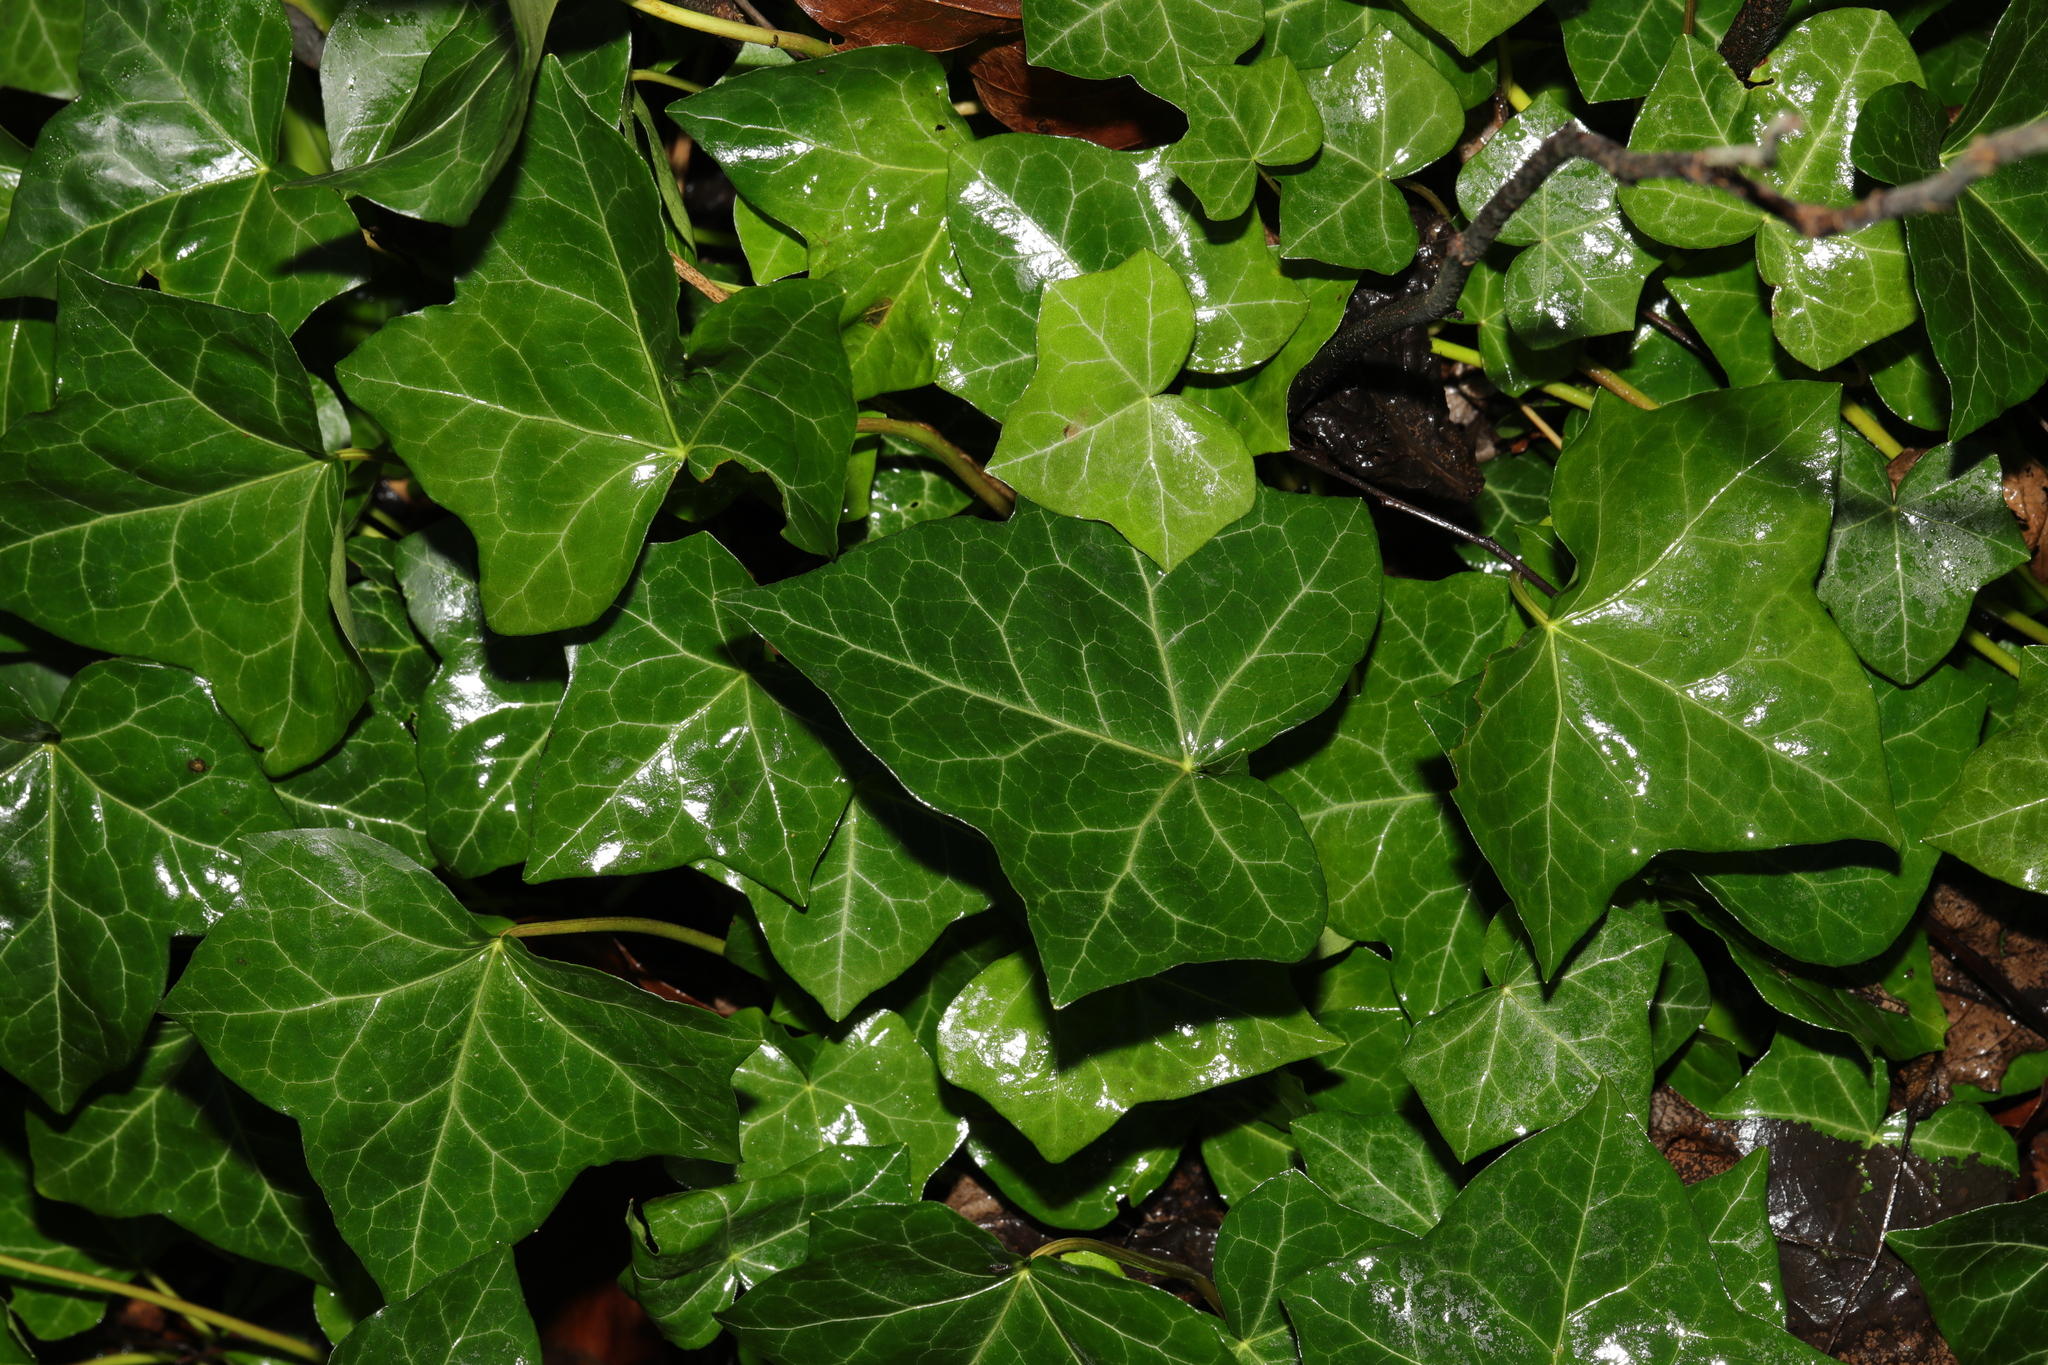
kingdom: Plantae
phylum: Tracheophyta
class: Magnoliopsida
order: Apiales
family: Araliaceae
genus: Hedera
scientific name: Hedera helix
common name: Ivy
